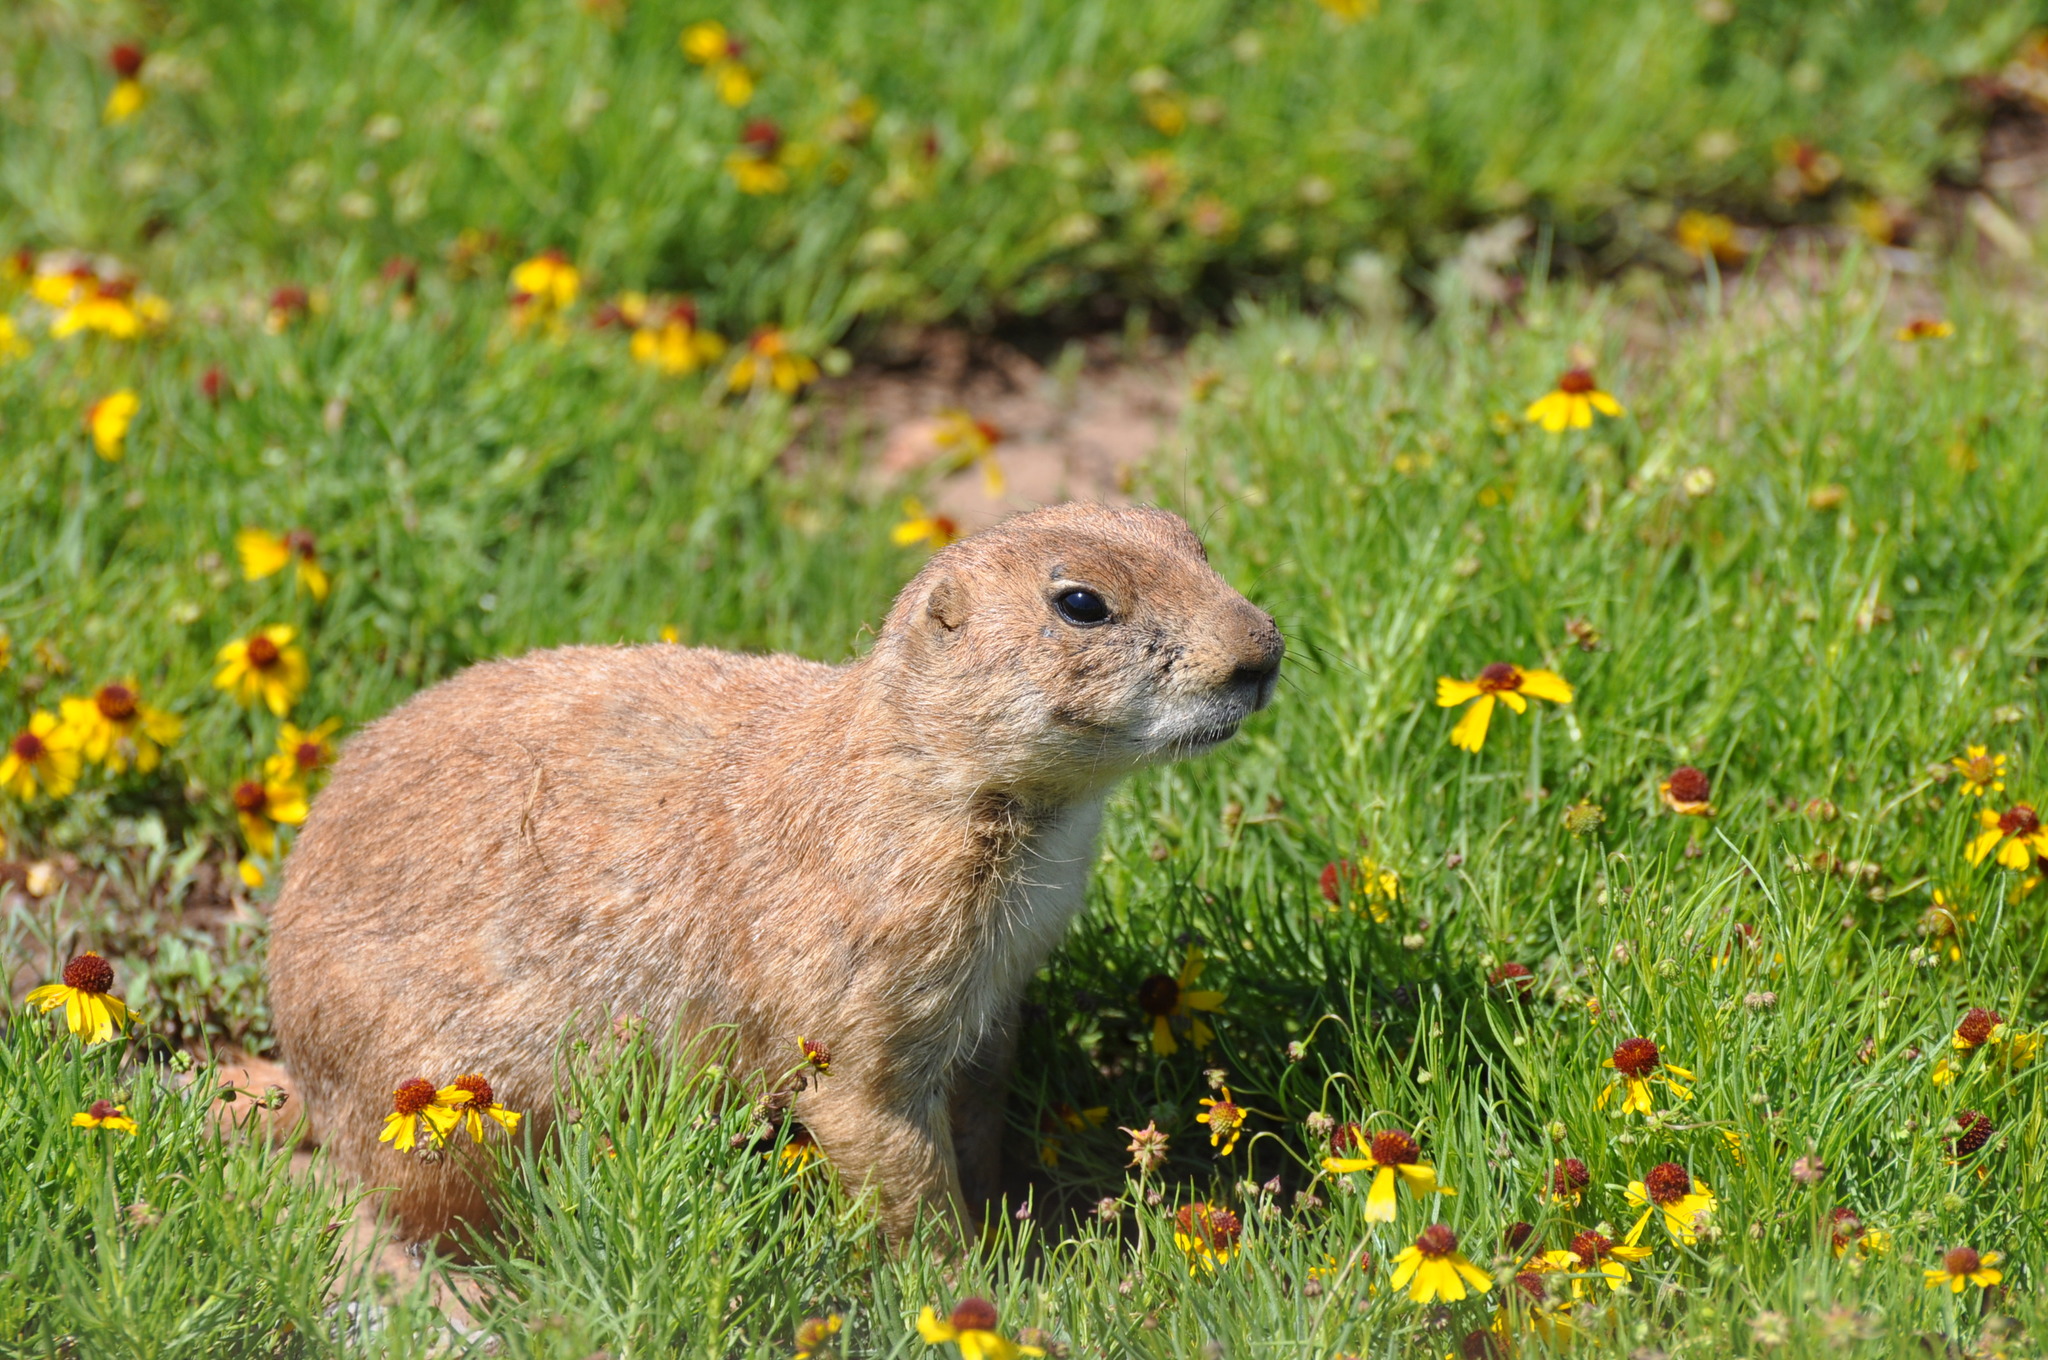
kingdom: Animalia
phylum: Chordata
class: Mammalia
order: Rodentia
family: Sciuridae
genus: Cynomys
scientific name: Cynomys ludovicianus
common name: Black-tailed prairie dog
